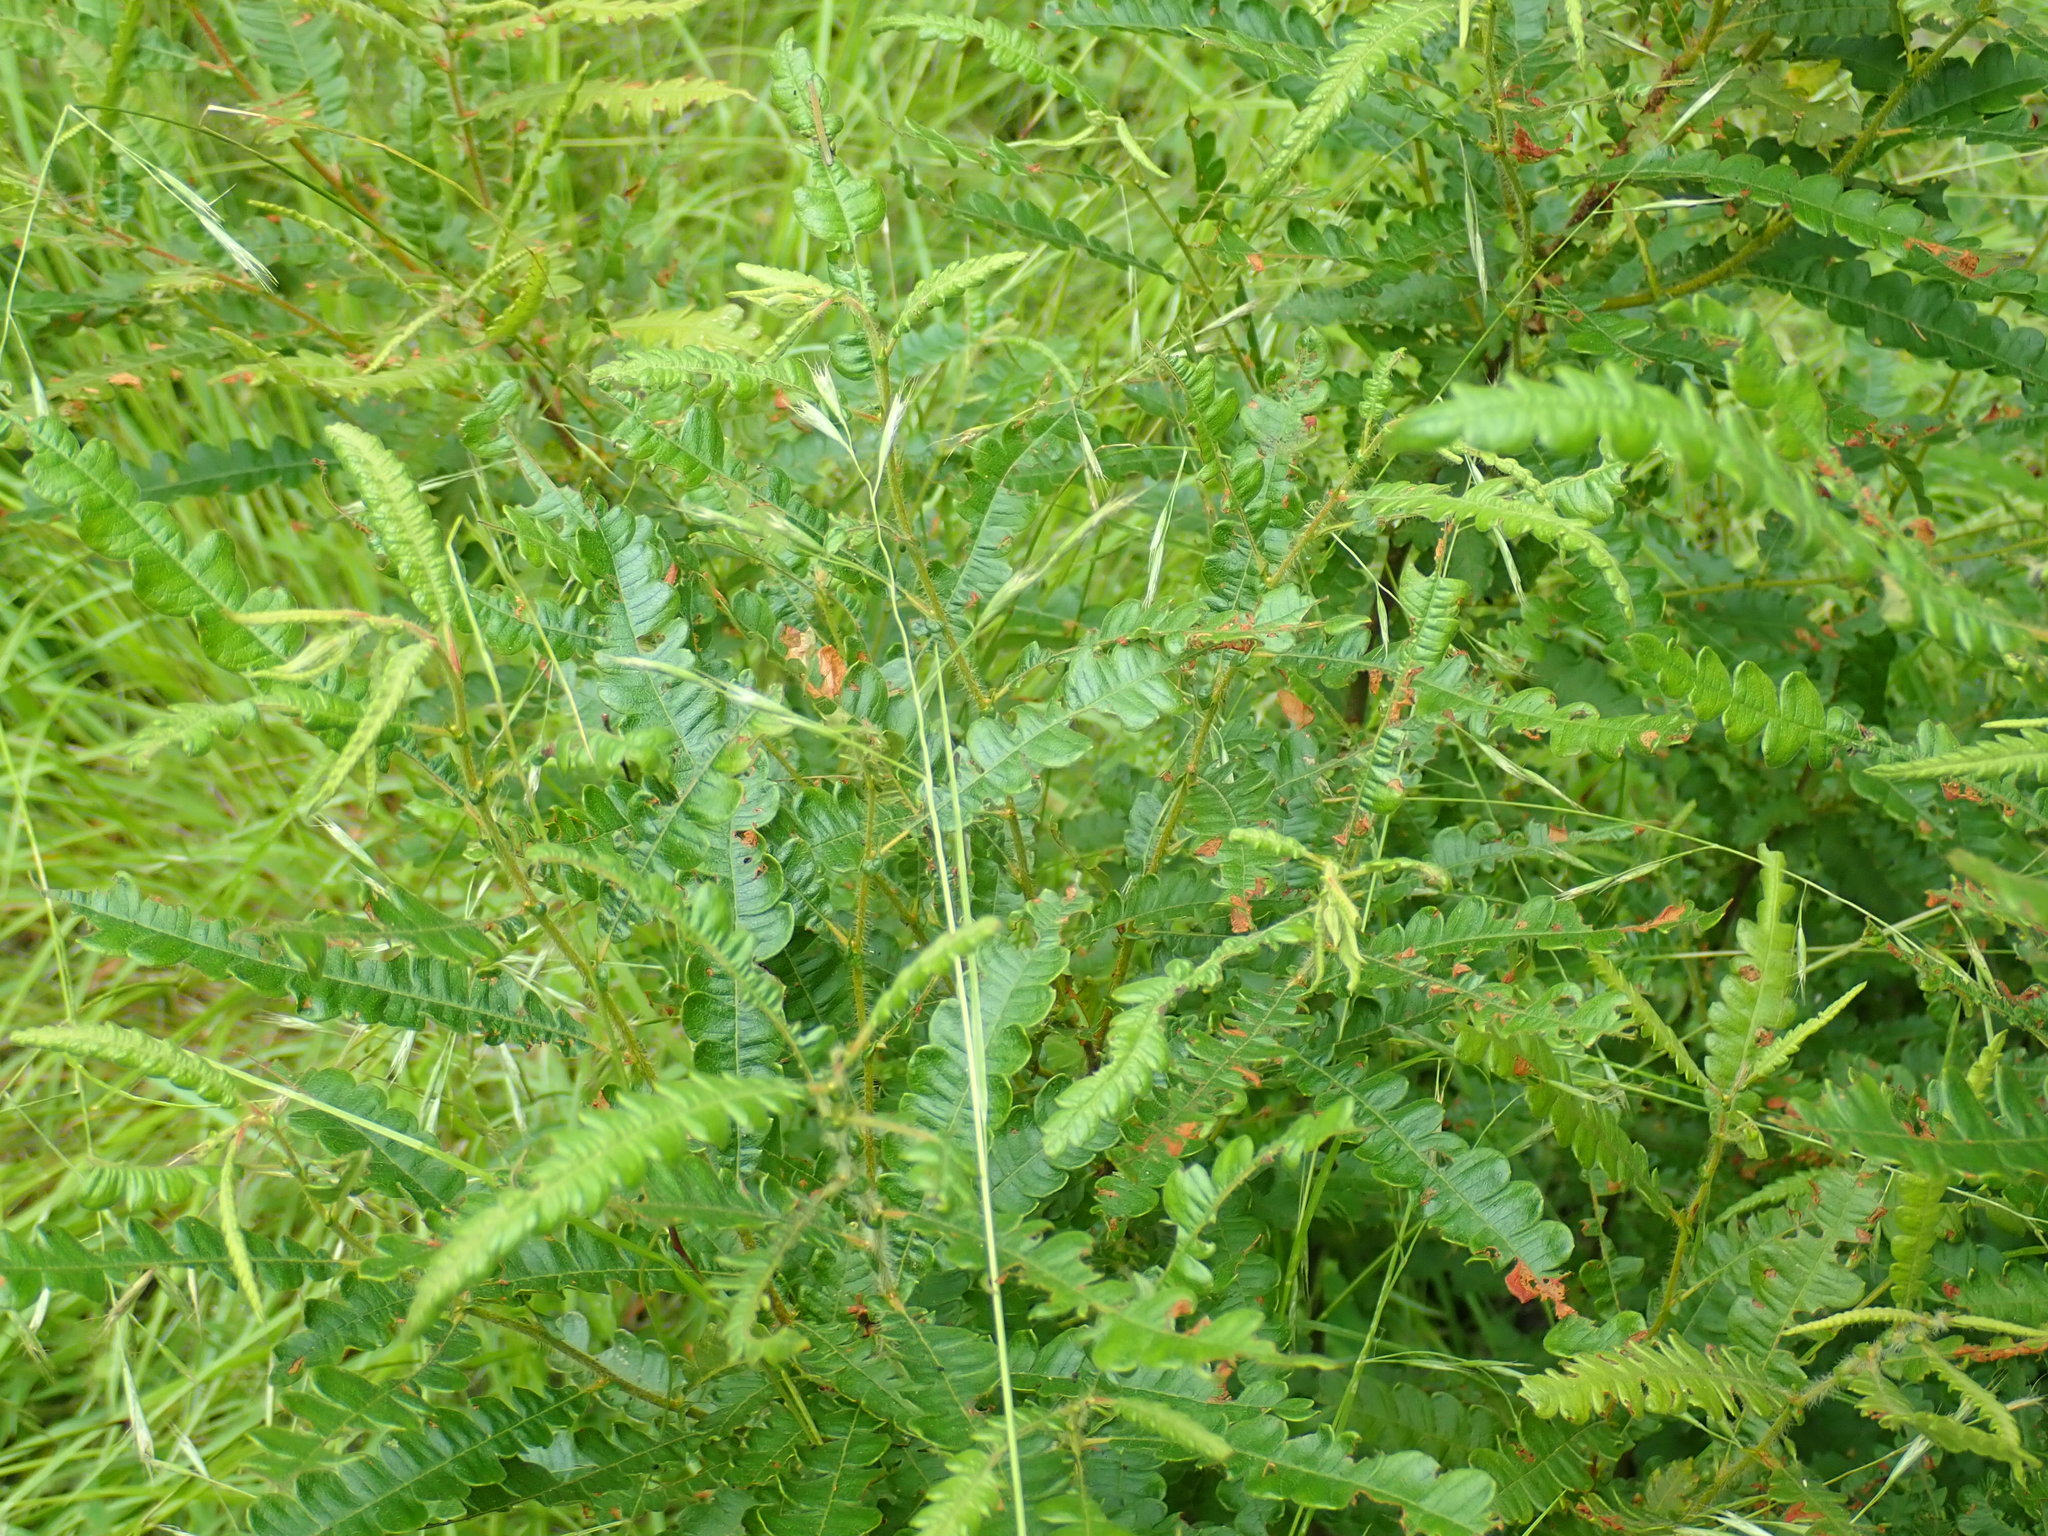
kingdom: Plantae
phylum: Tracheophyta
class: Magnoliopsida
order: Fagales
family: Myricaceae
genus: Comptonia
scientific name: Comptonia peregrina
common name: Sweet-fern
